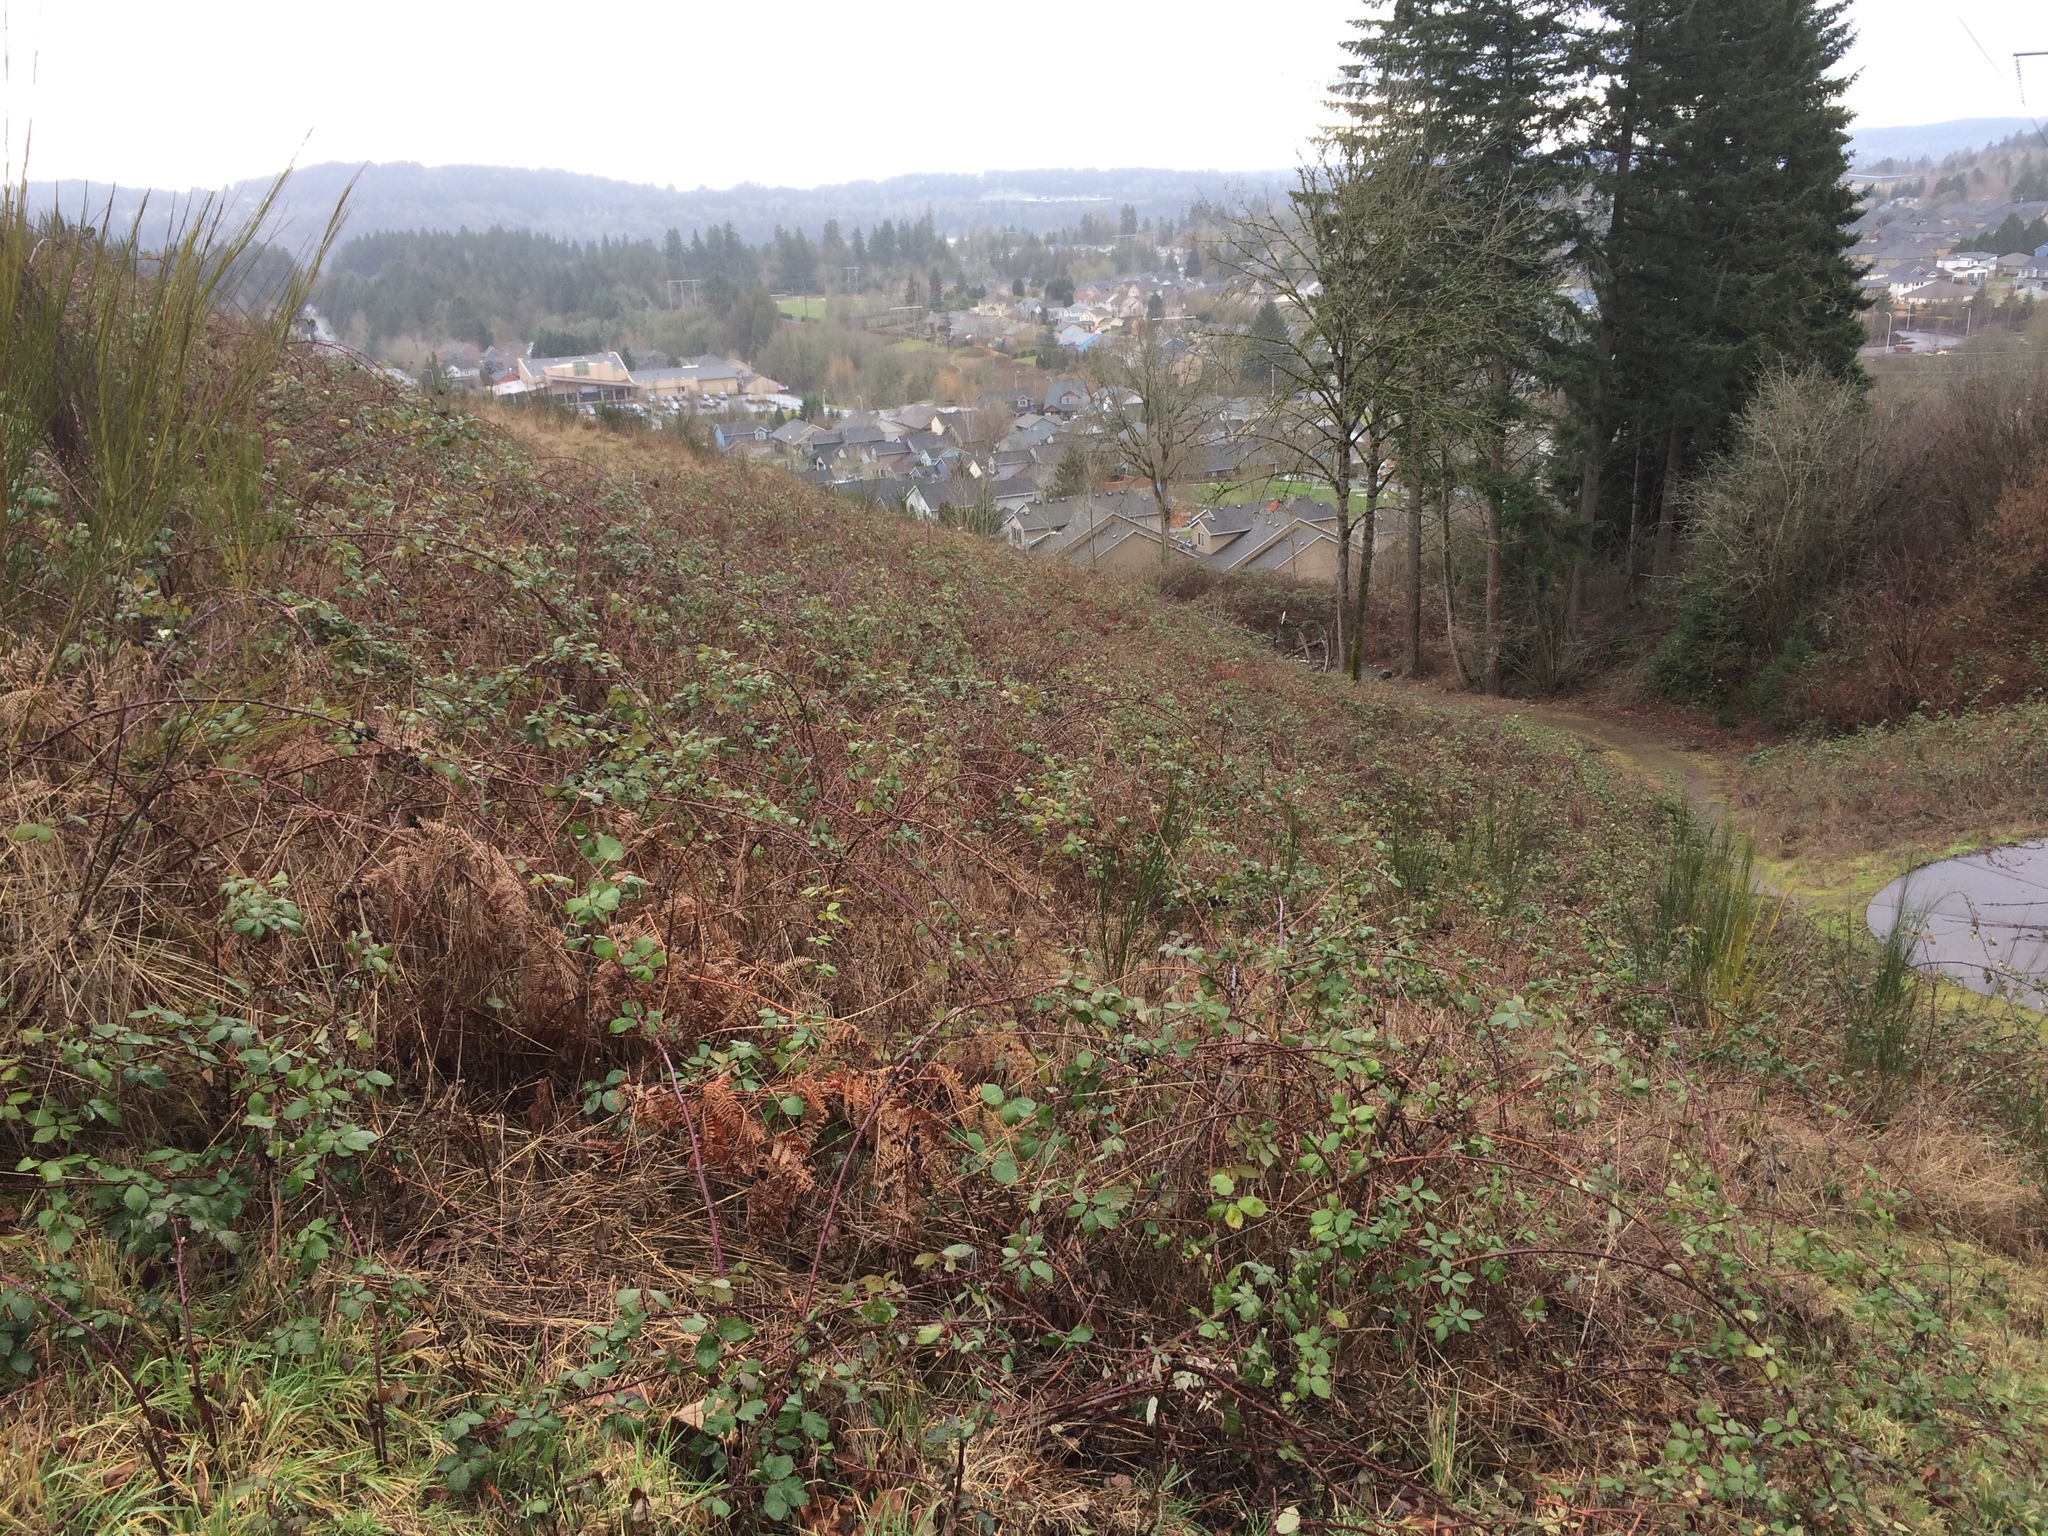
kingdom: Plantae
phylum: Tracheophyta
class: Magnoliopsida
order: Rosales
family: Rosaceae
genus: Rubus
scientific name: Rubus bifrons
